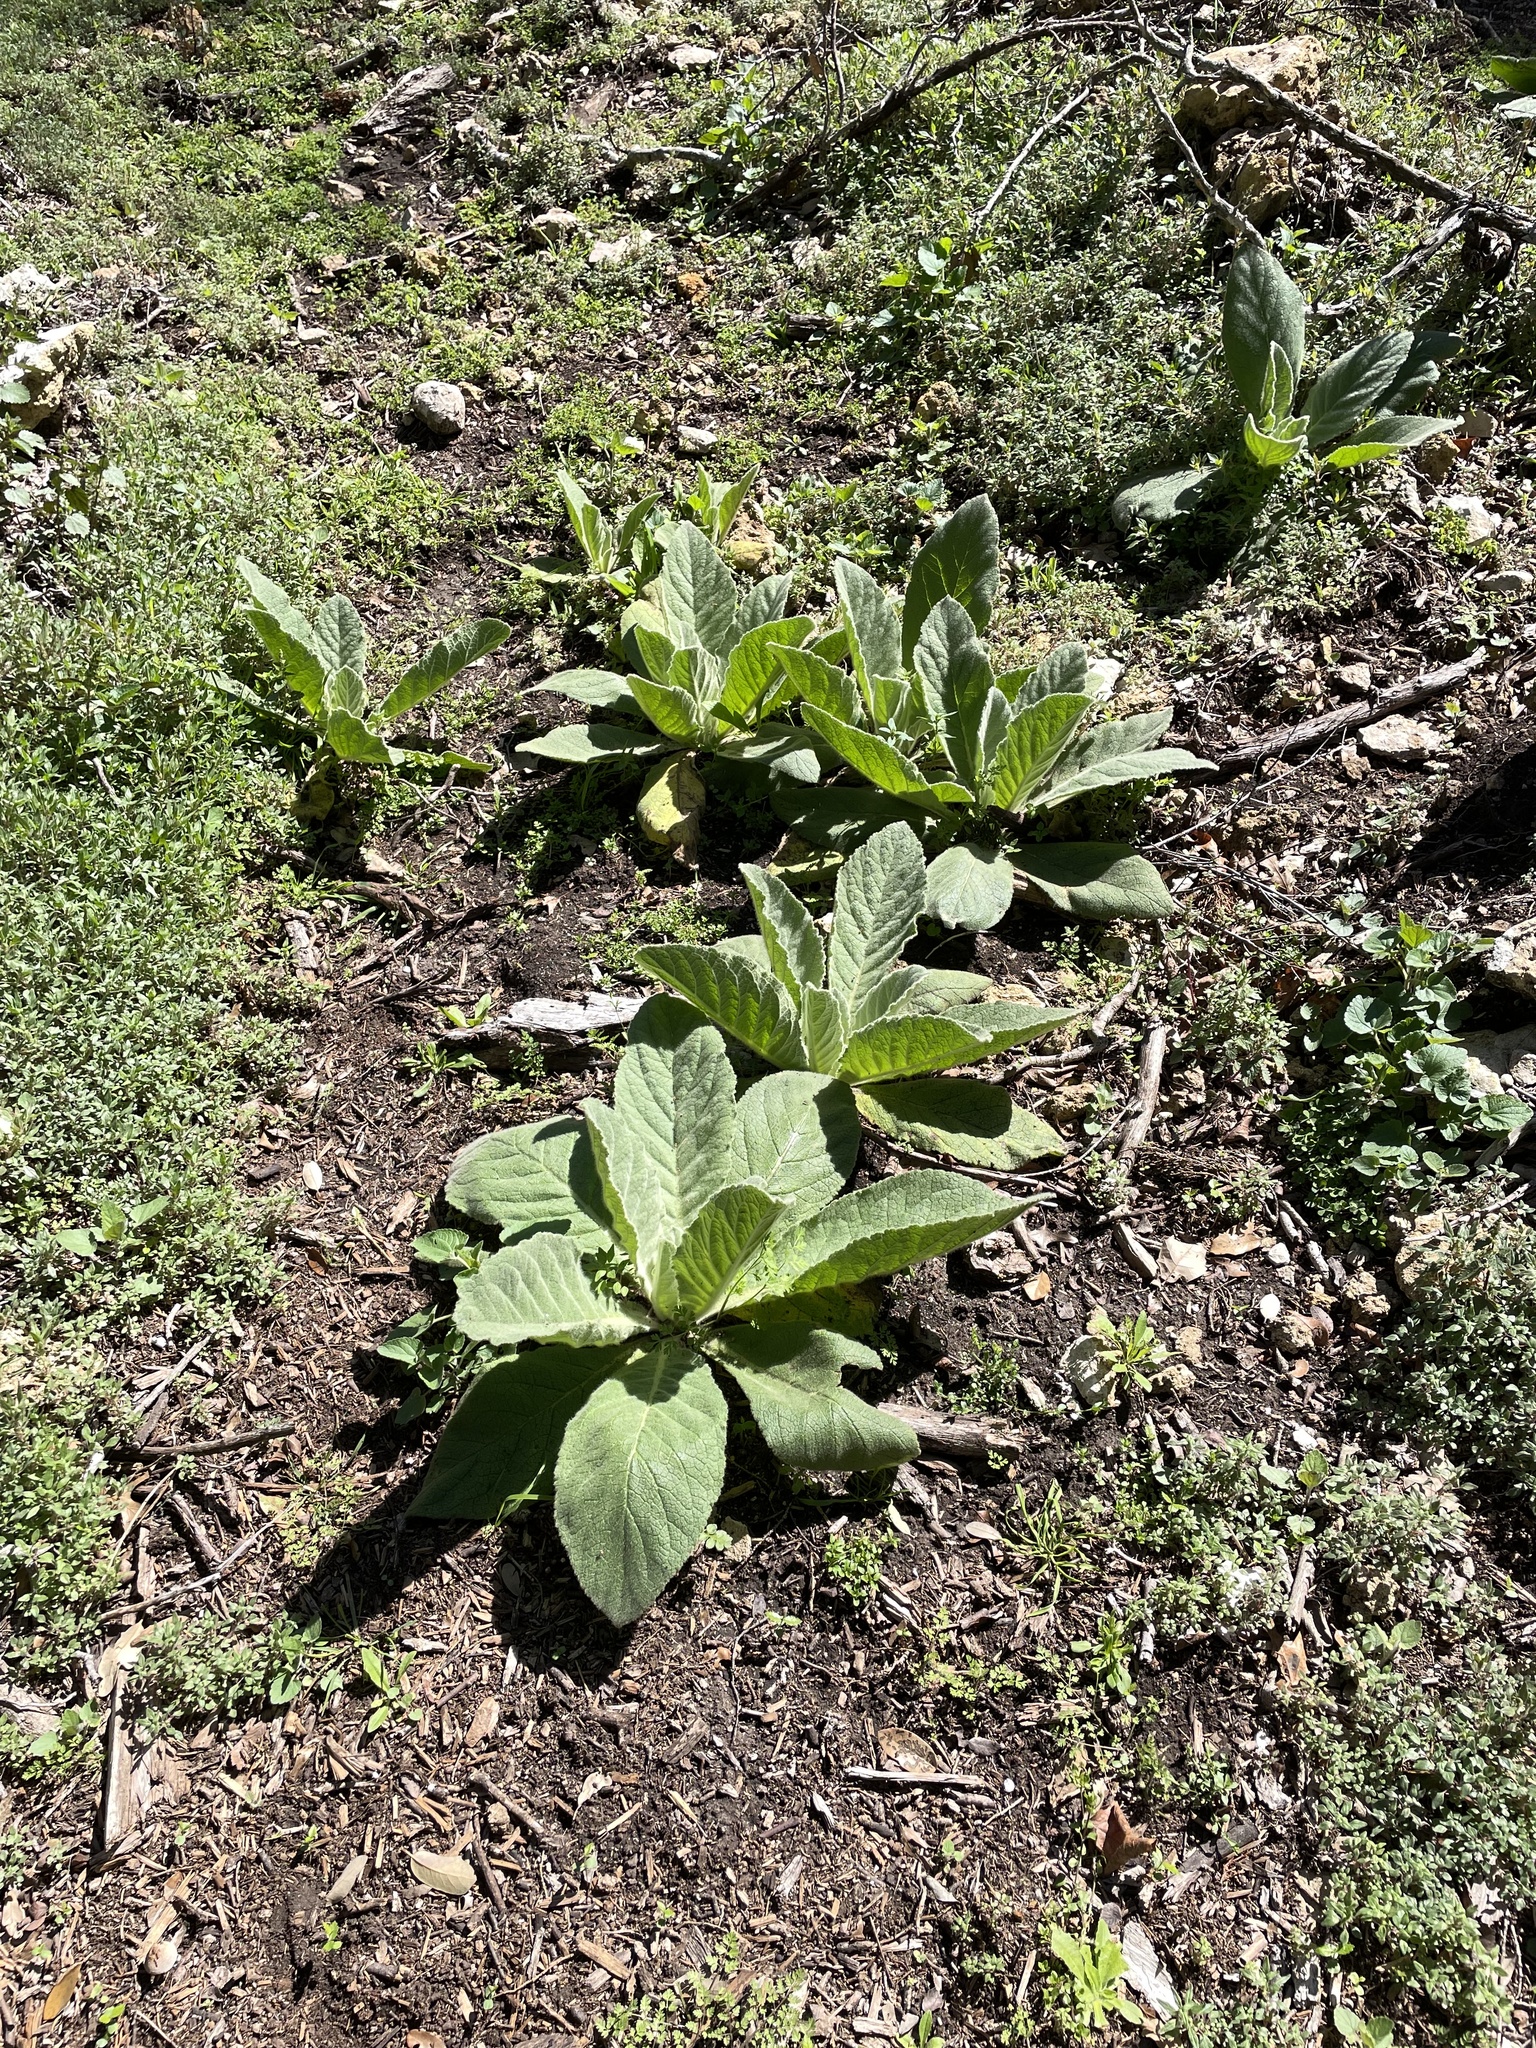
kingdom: Plantae
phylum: Tracheophyta
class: Magnoliopsida
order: Lamiales
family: Scrophulariaceae
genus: Verbascum
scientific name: Verbascum thapsus
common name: Common mullein
